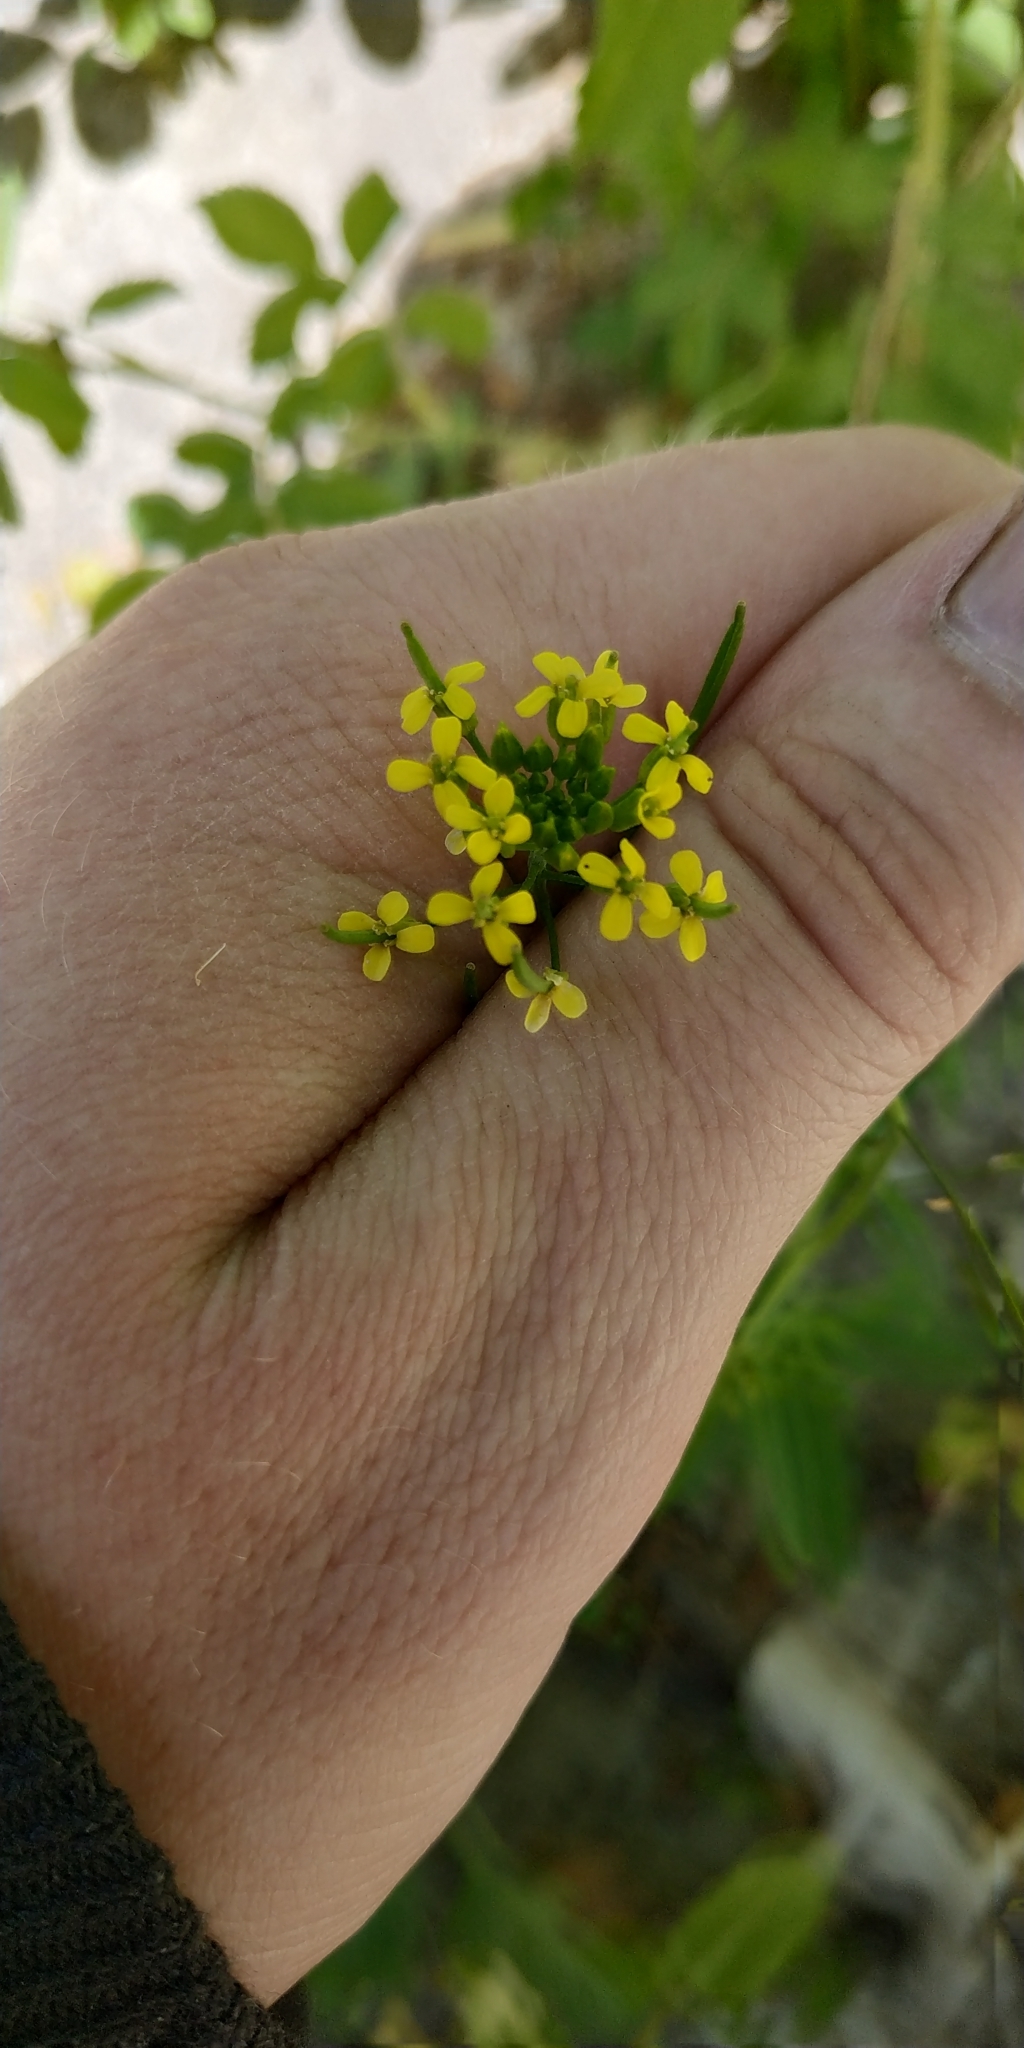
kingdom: Plantae
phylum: Tracheophyta
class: Magnoliopsida
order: Brassicales
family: Brassicaceae
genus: Erysimum
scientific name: Erysimum cheiranthoides
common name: Treacle mustard
